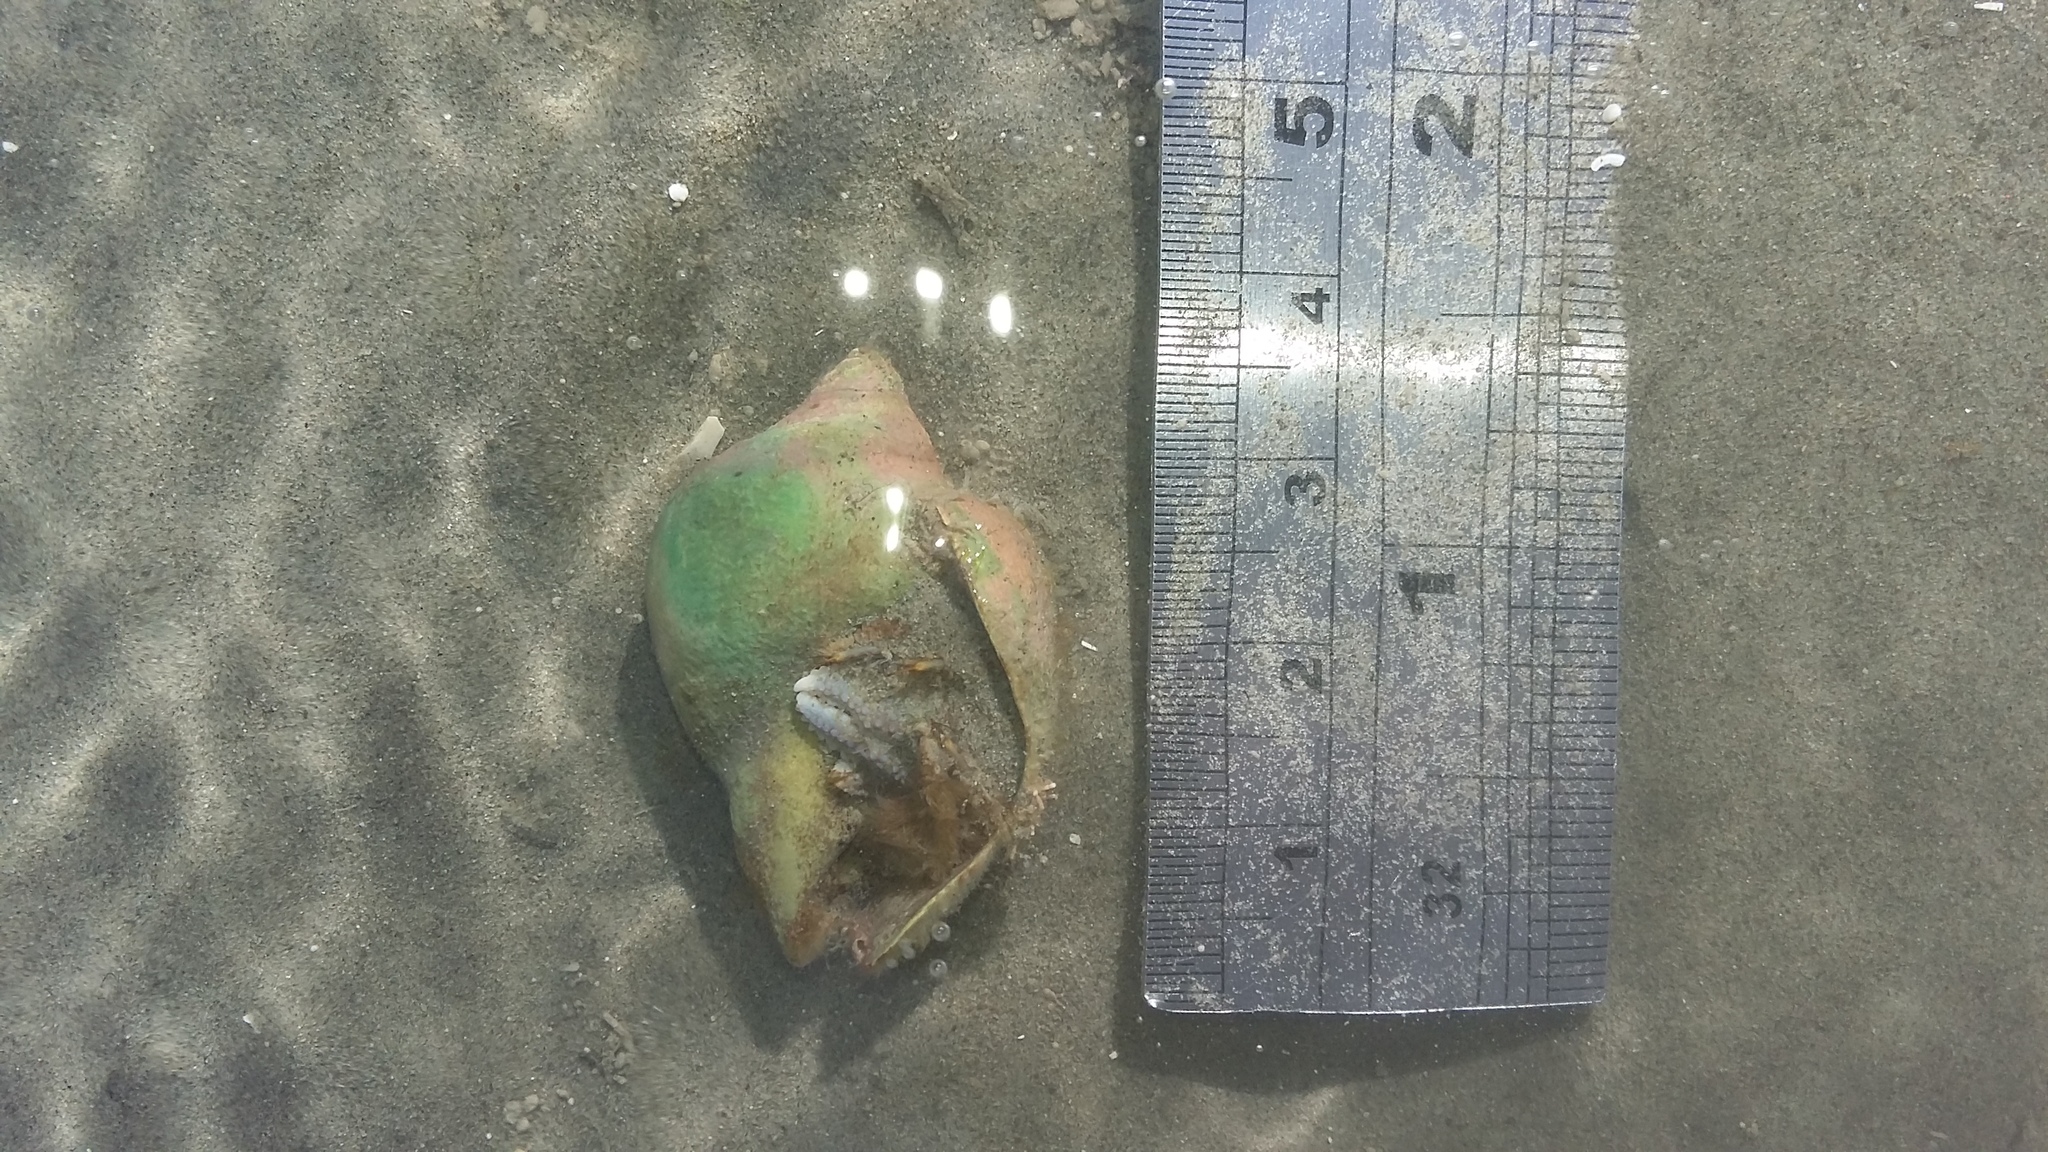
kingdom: Animalia
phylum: Arthropoda
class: Malacostraca
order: Decapoda
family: Paguridae
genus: Pagurus
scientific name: Pagurus novizealandiae
